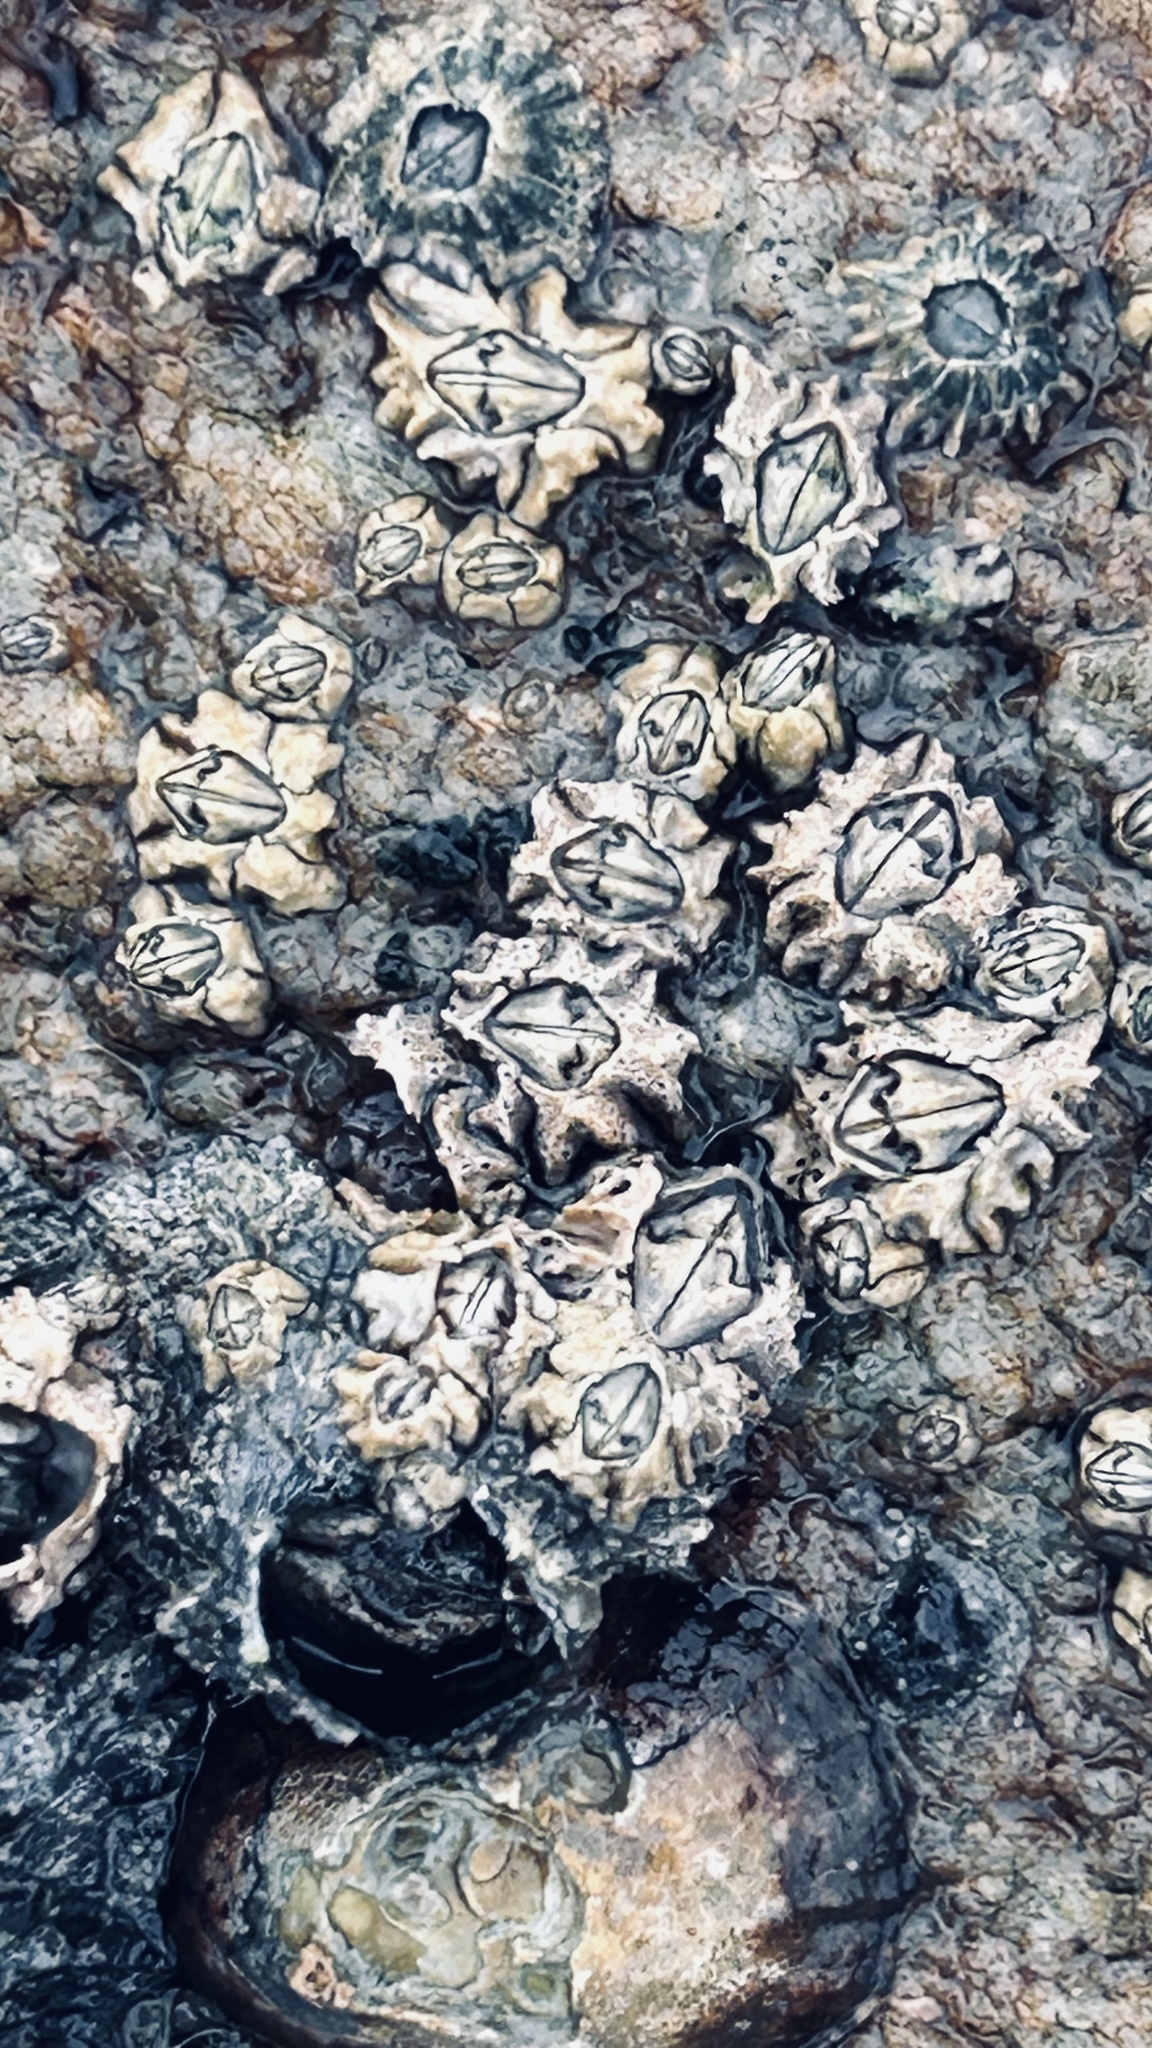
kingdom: Animalia
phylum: Arthropoda
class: Maxillopoda
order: Sessilia
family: Chthamalidae
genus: Chthamalus
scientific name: Chthamalus dentatus
